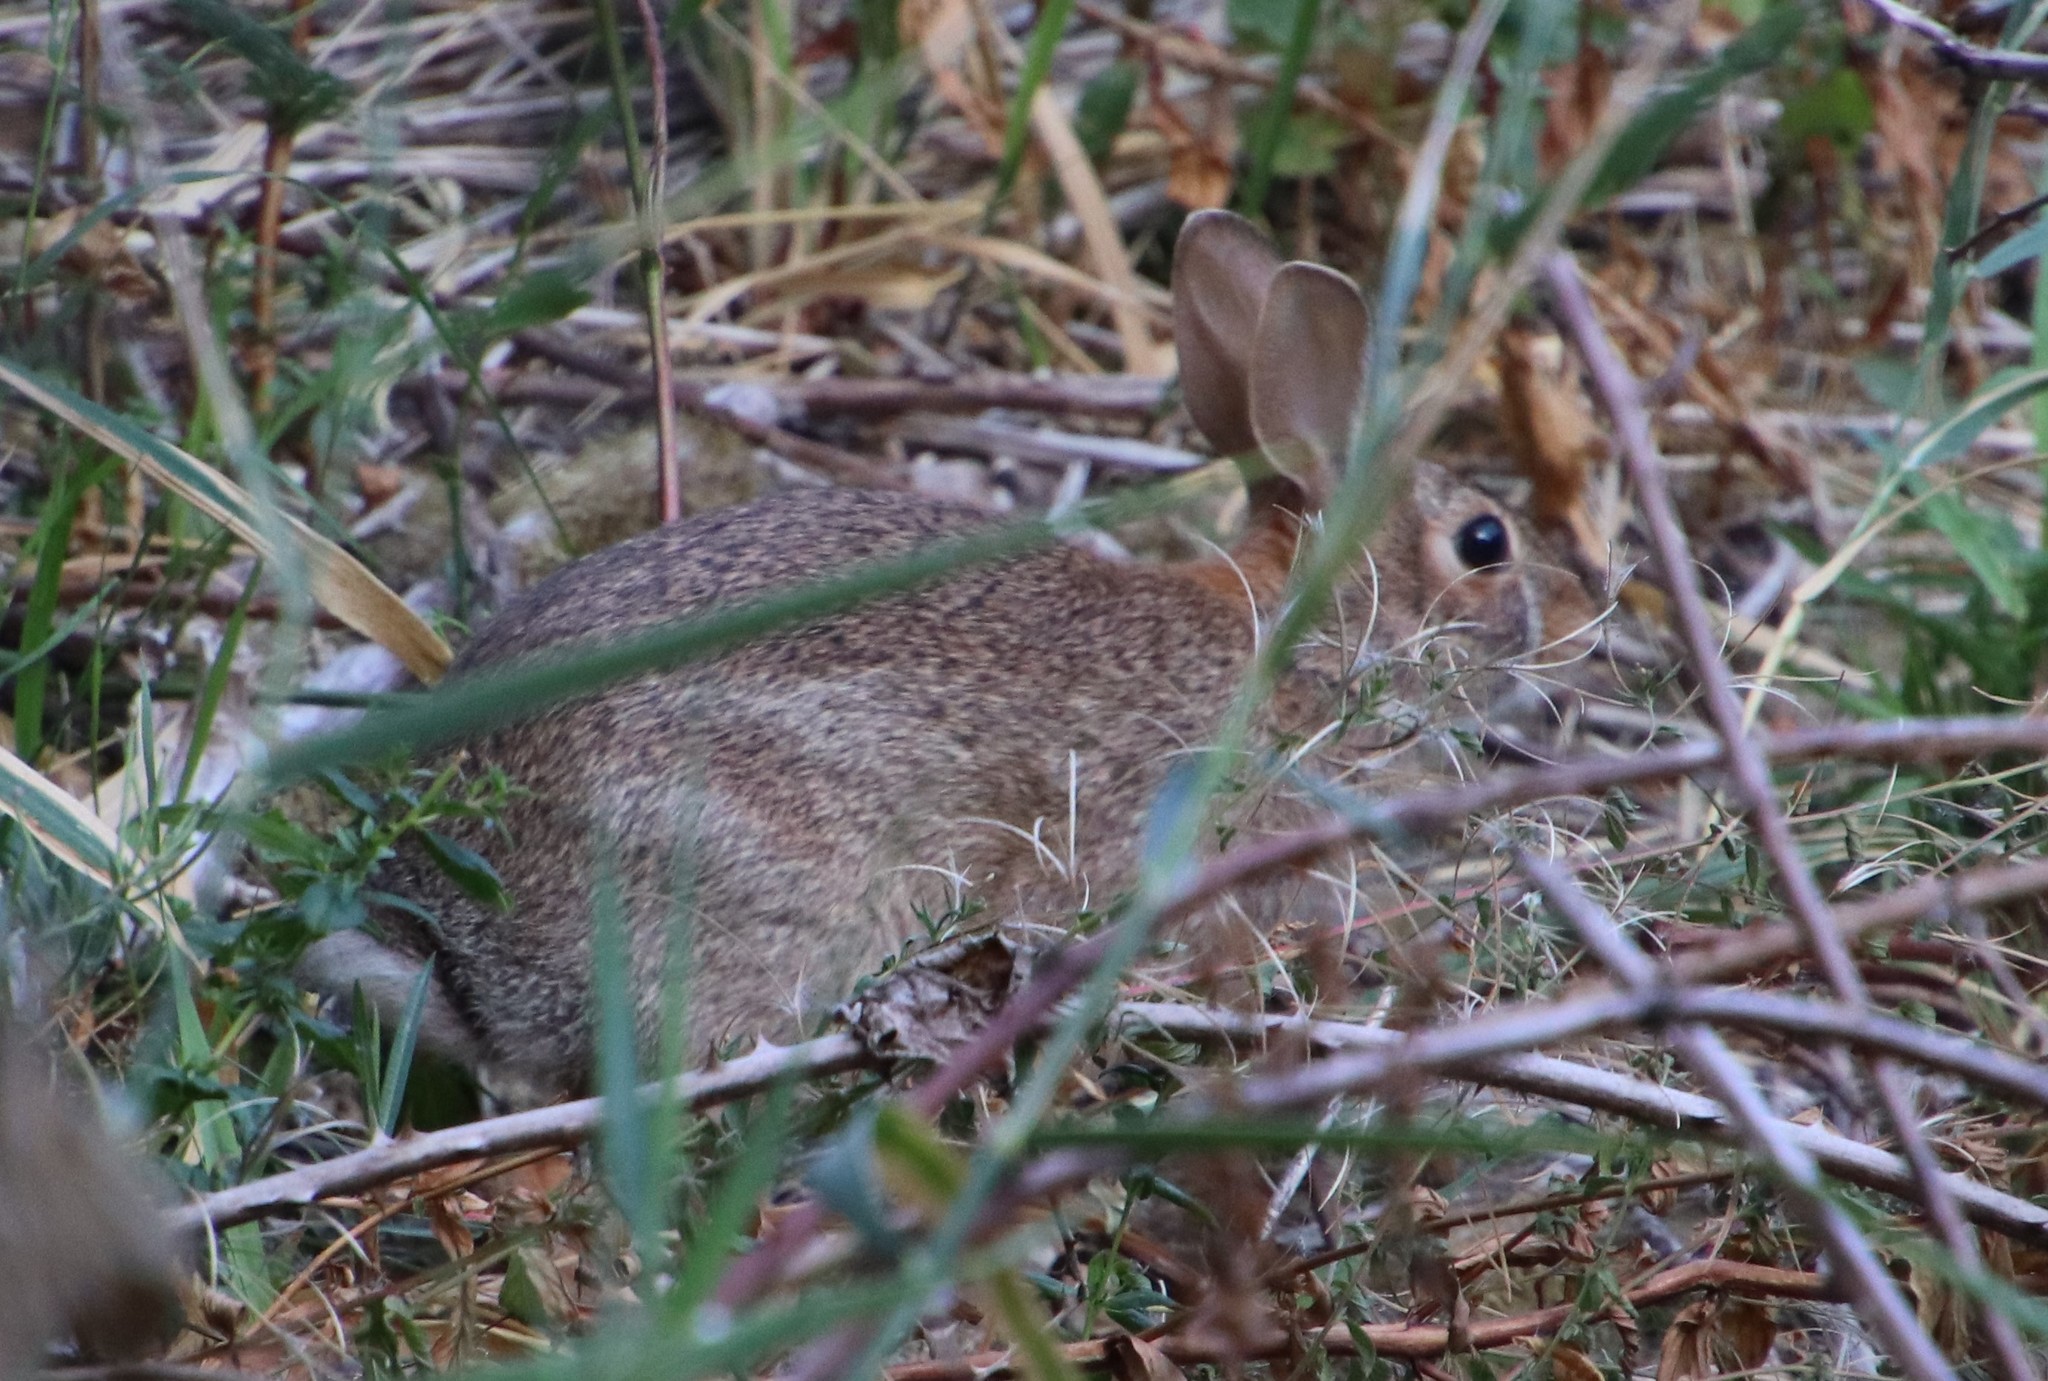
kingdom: Animalia
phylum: Chordata
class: Mammalia
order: Lagomorpha
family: Leporidae
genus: Sylvilagus
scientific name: Sylvilagus
